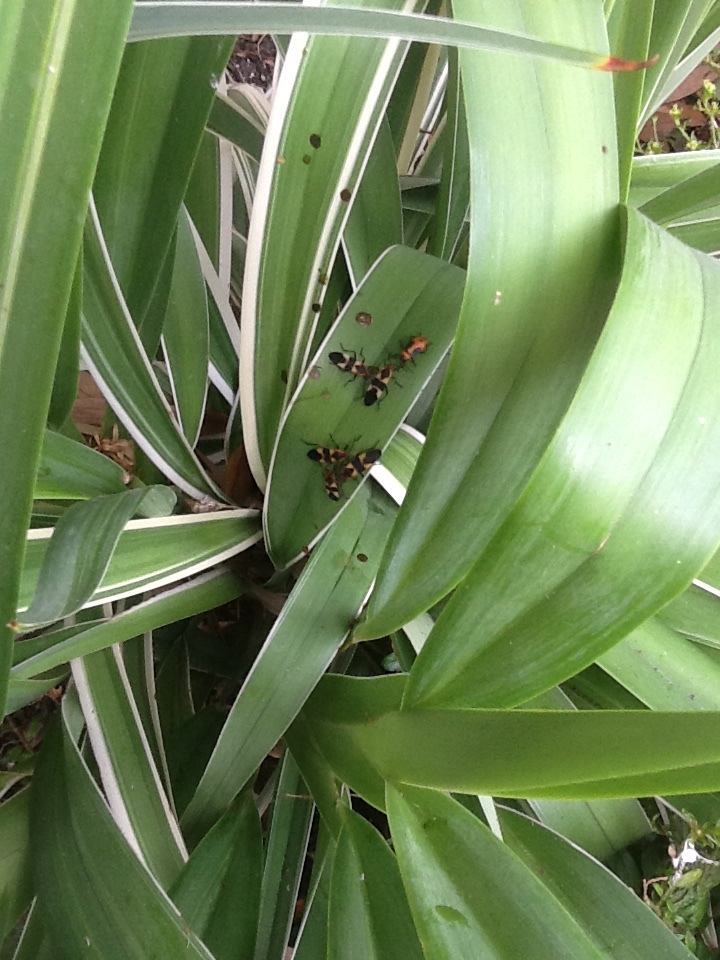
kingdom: Animalia
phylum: Arthropoda
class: Insecta
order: Hemiptera
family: Lygaeidae
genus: Oncopeltus
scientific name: Oncopeltus fasciatus
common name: Large milkweed bug
